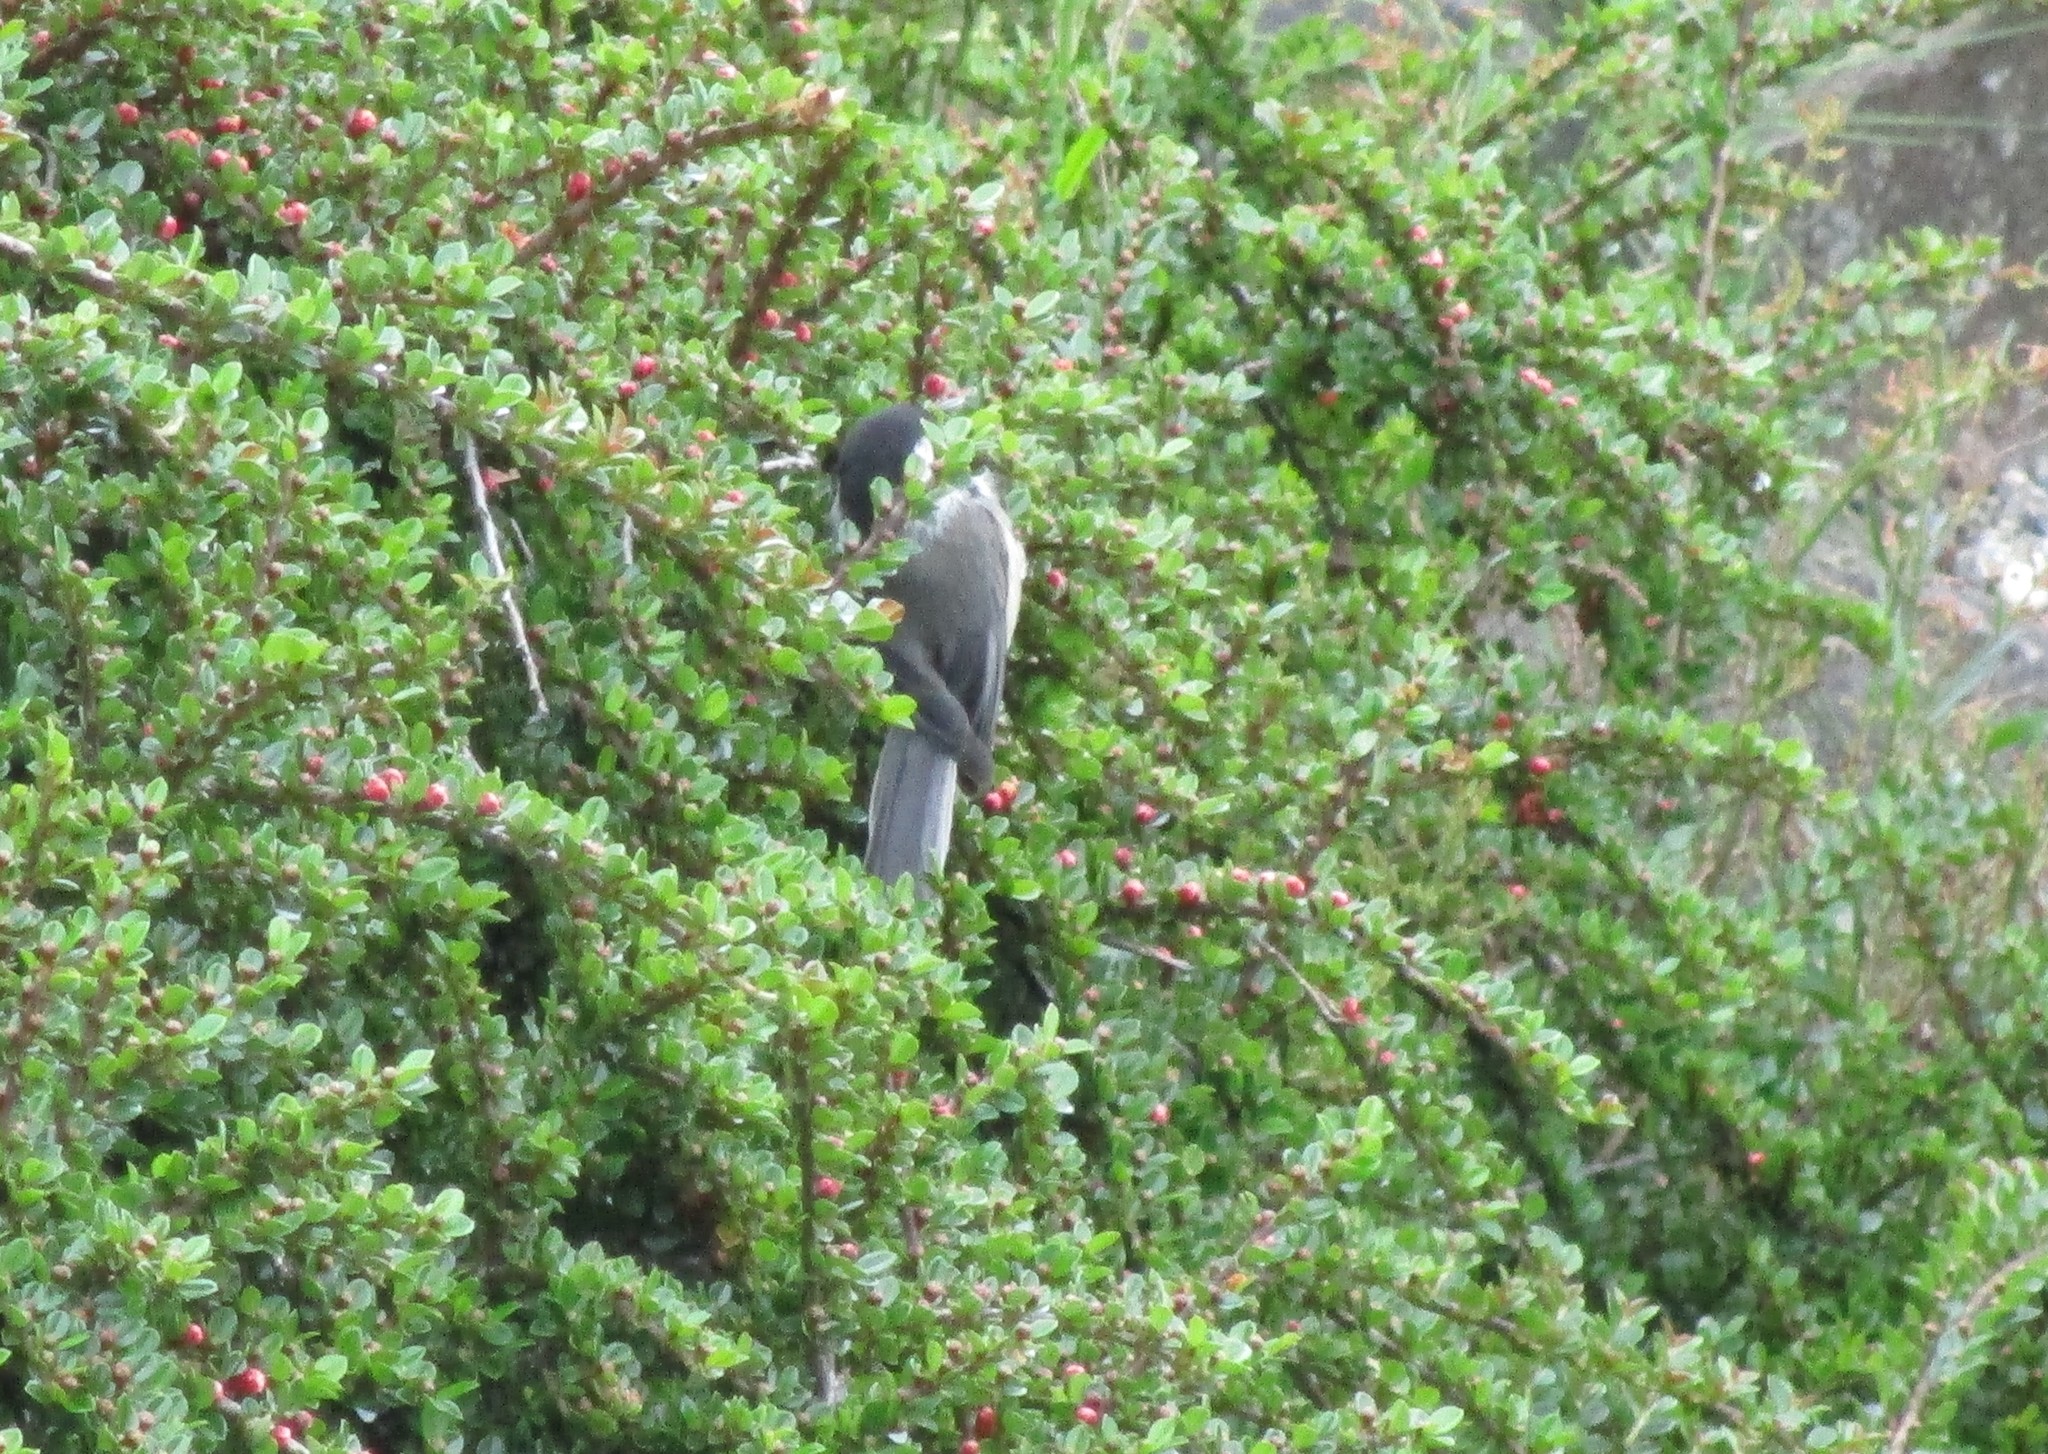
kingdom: Animalia
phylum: Chordata
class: Aves
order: Passeriformes
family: Paridae
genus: Poecile
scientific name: Poecile atricapillus
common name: Black-capped chickadee
